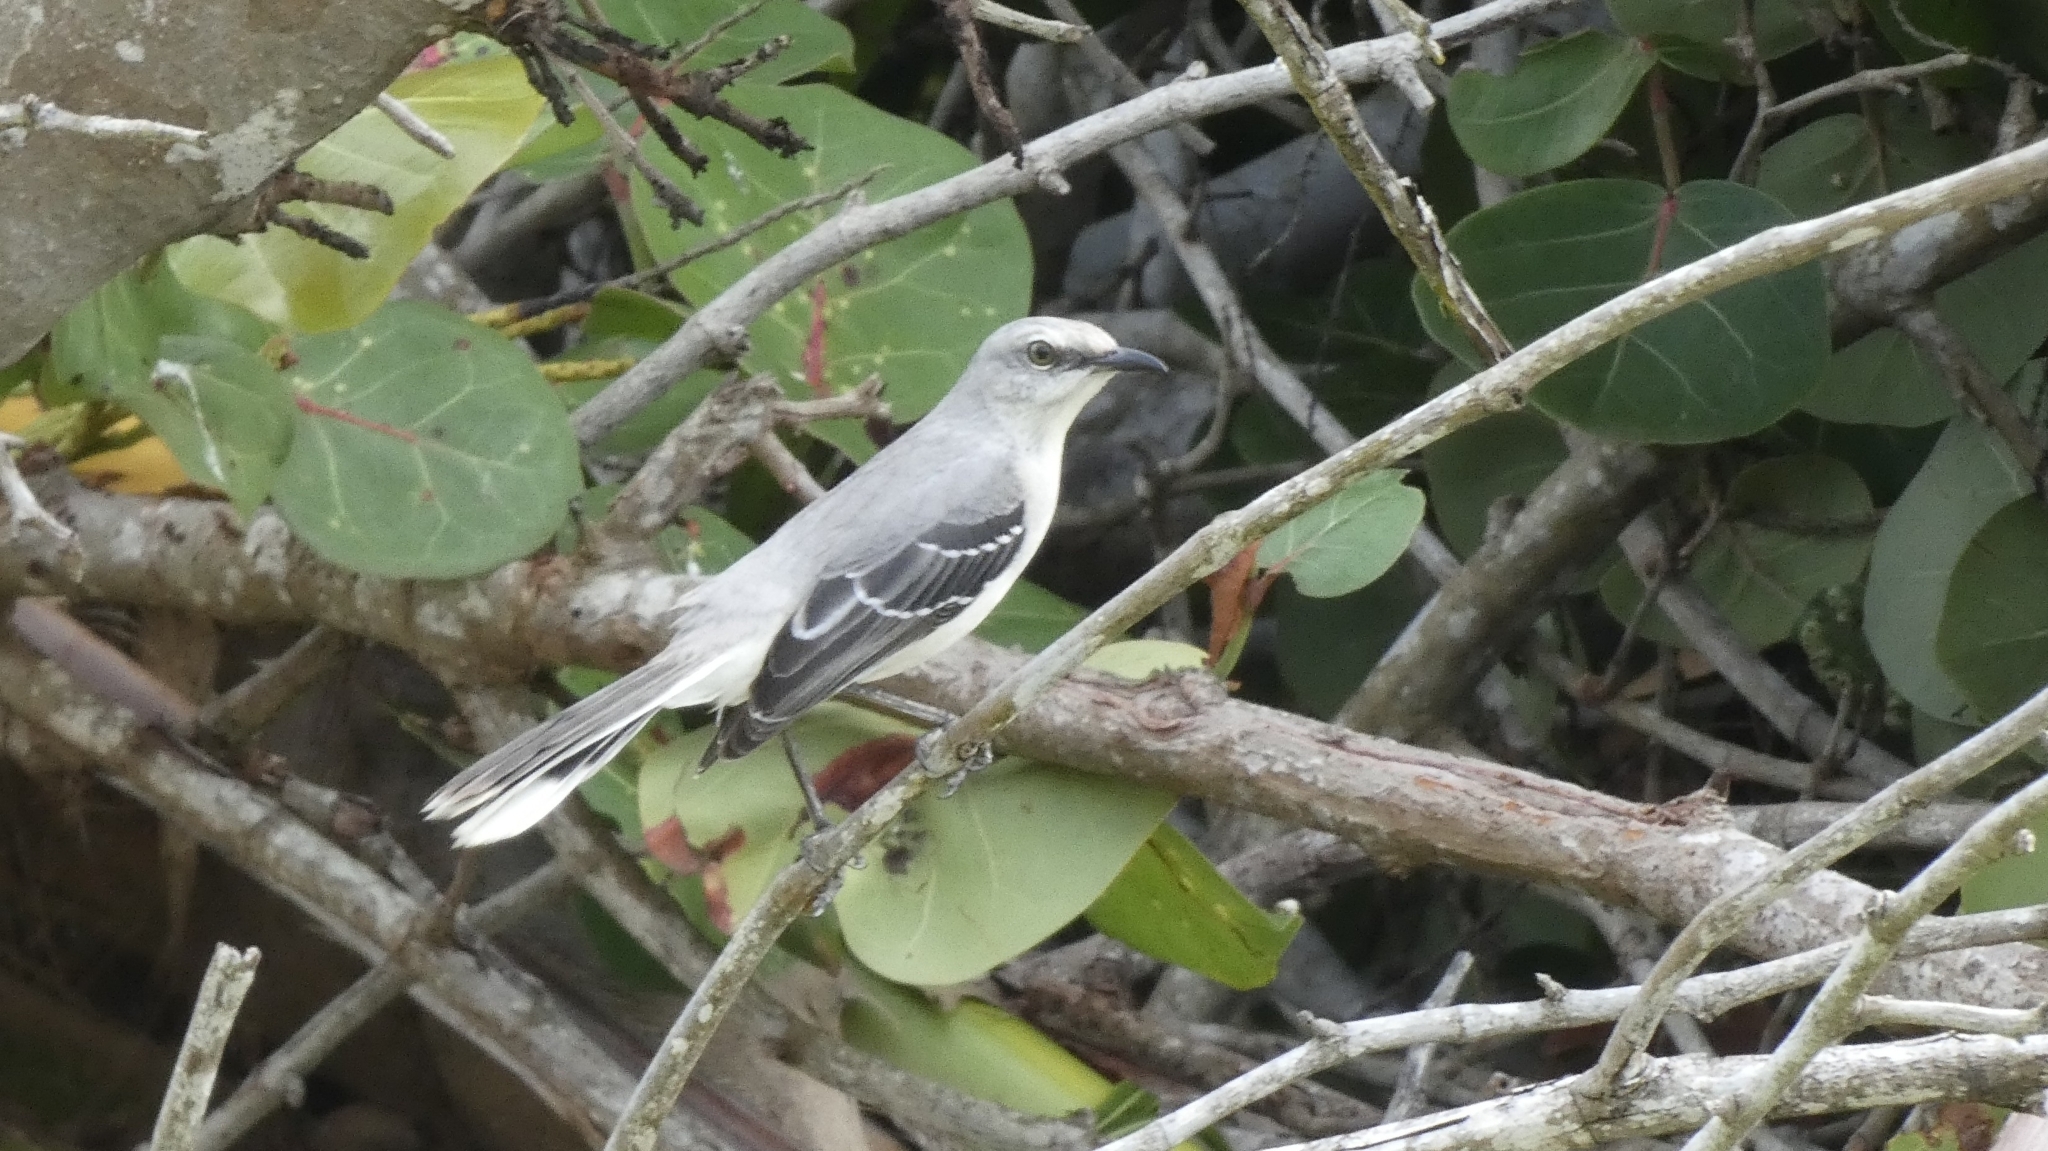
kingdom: Animalia
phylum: Chordata
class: Aves
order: Passeriformes
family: Mimidae
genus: Mimus
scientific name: Mimus gilvus
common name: Tropical mockingbird
